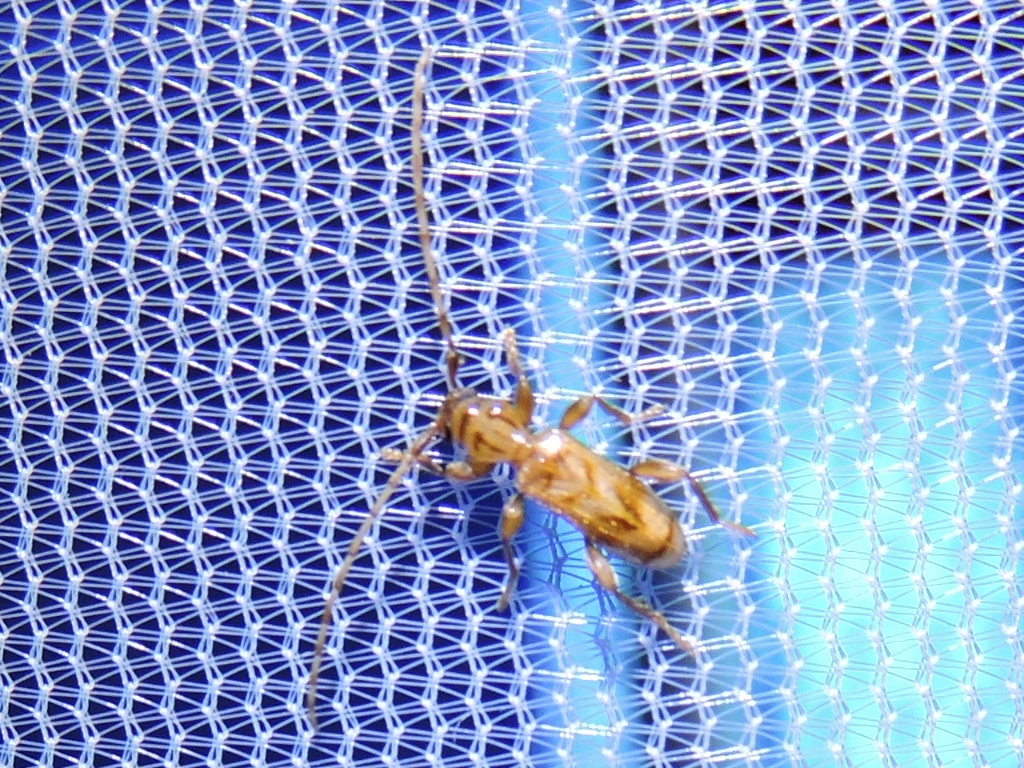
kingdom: Animalia
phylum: Arthropoda
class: Insecta
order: Coleoptera
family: Cerambycidae
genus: Obrium
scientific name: Obrium maculatum
